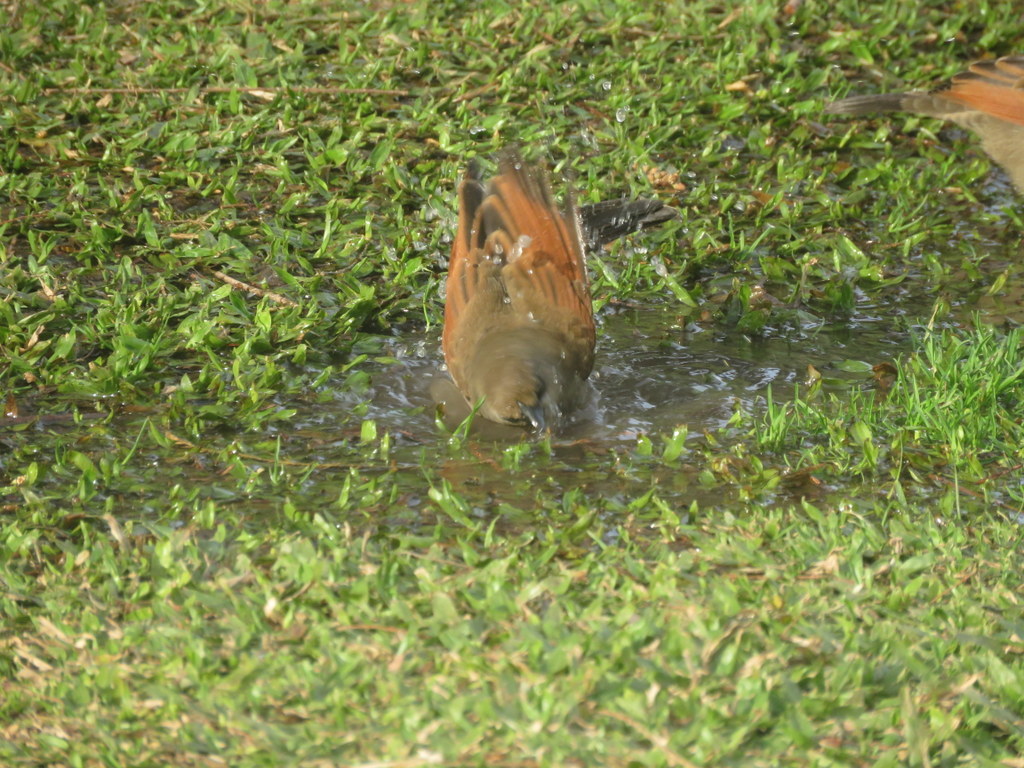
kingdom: Animalia
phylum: Chordata
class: Aves
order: Passeriformes
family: Icteridae
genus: Agelaioides
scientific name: Agelaioides badius
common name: Baywing
